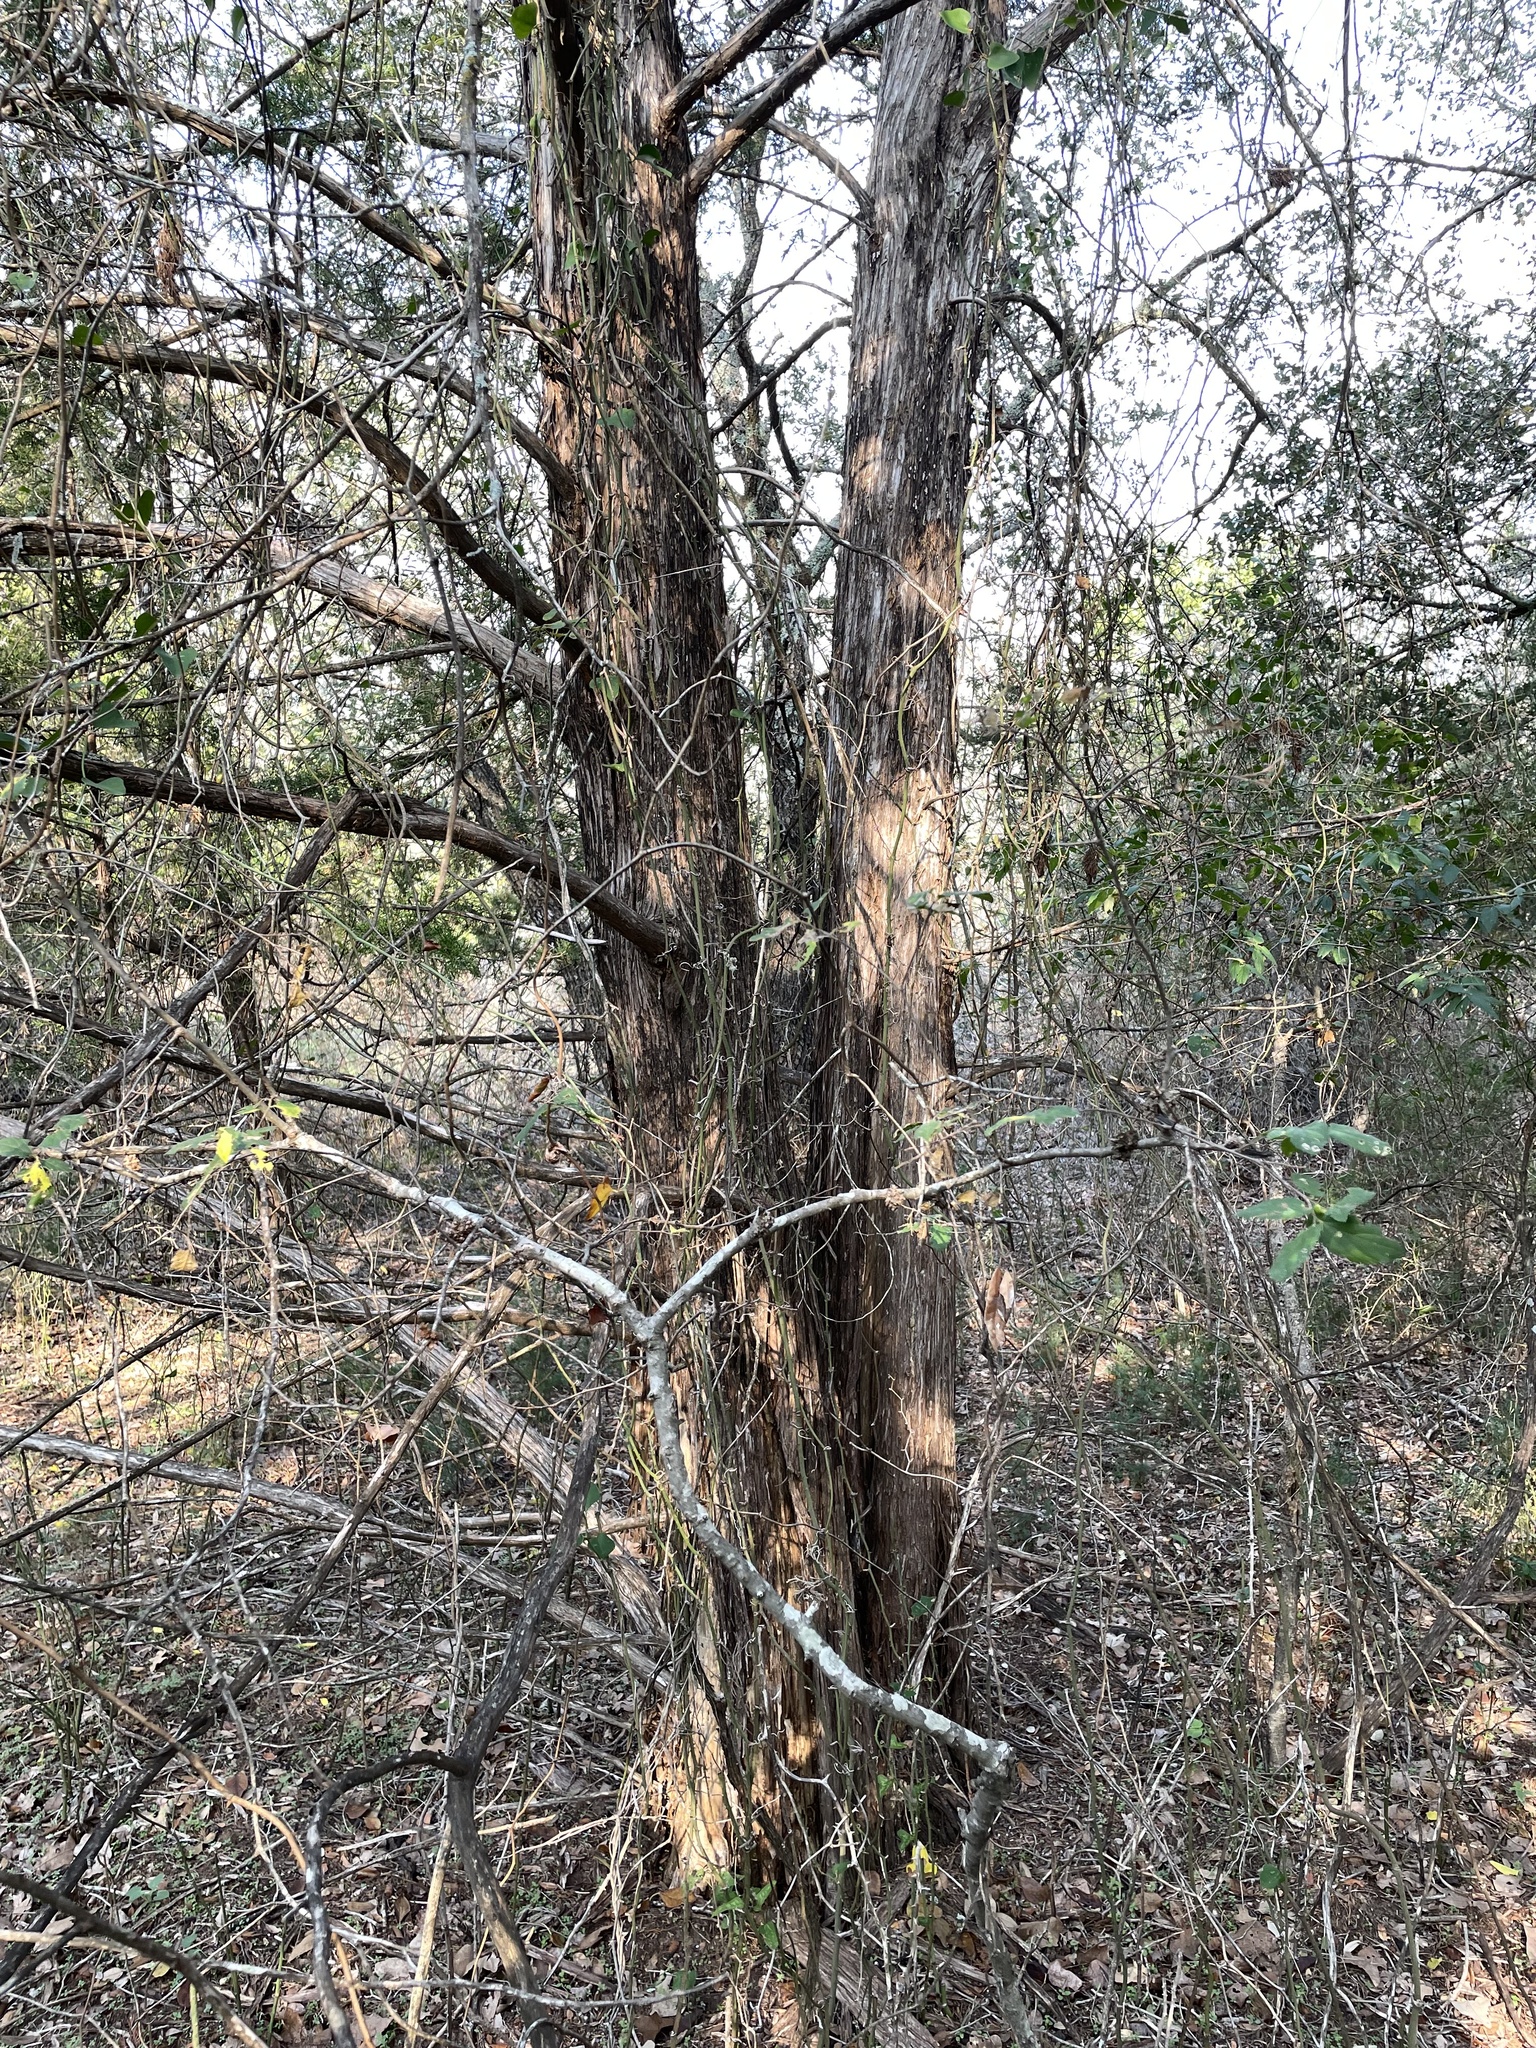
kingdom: Plantae
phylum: Tracheophyta
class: Pinopsida
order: Pinales
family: Cupressaceae
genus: Juniperus
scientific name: Juniperus virginiana
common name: Red juniper
